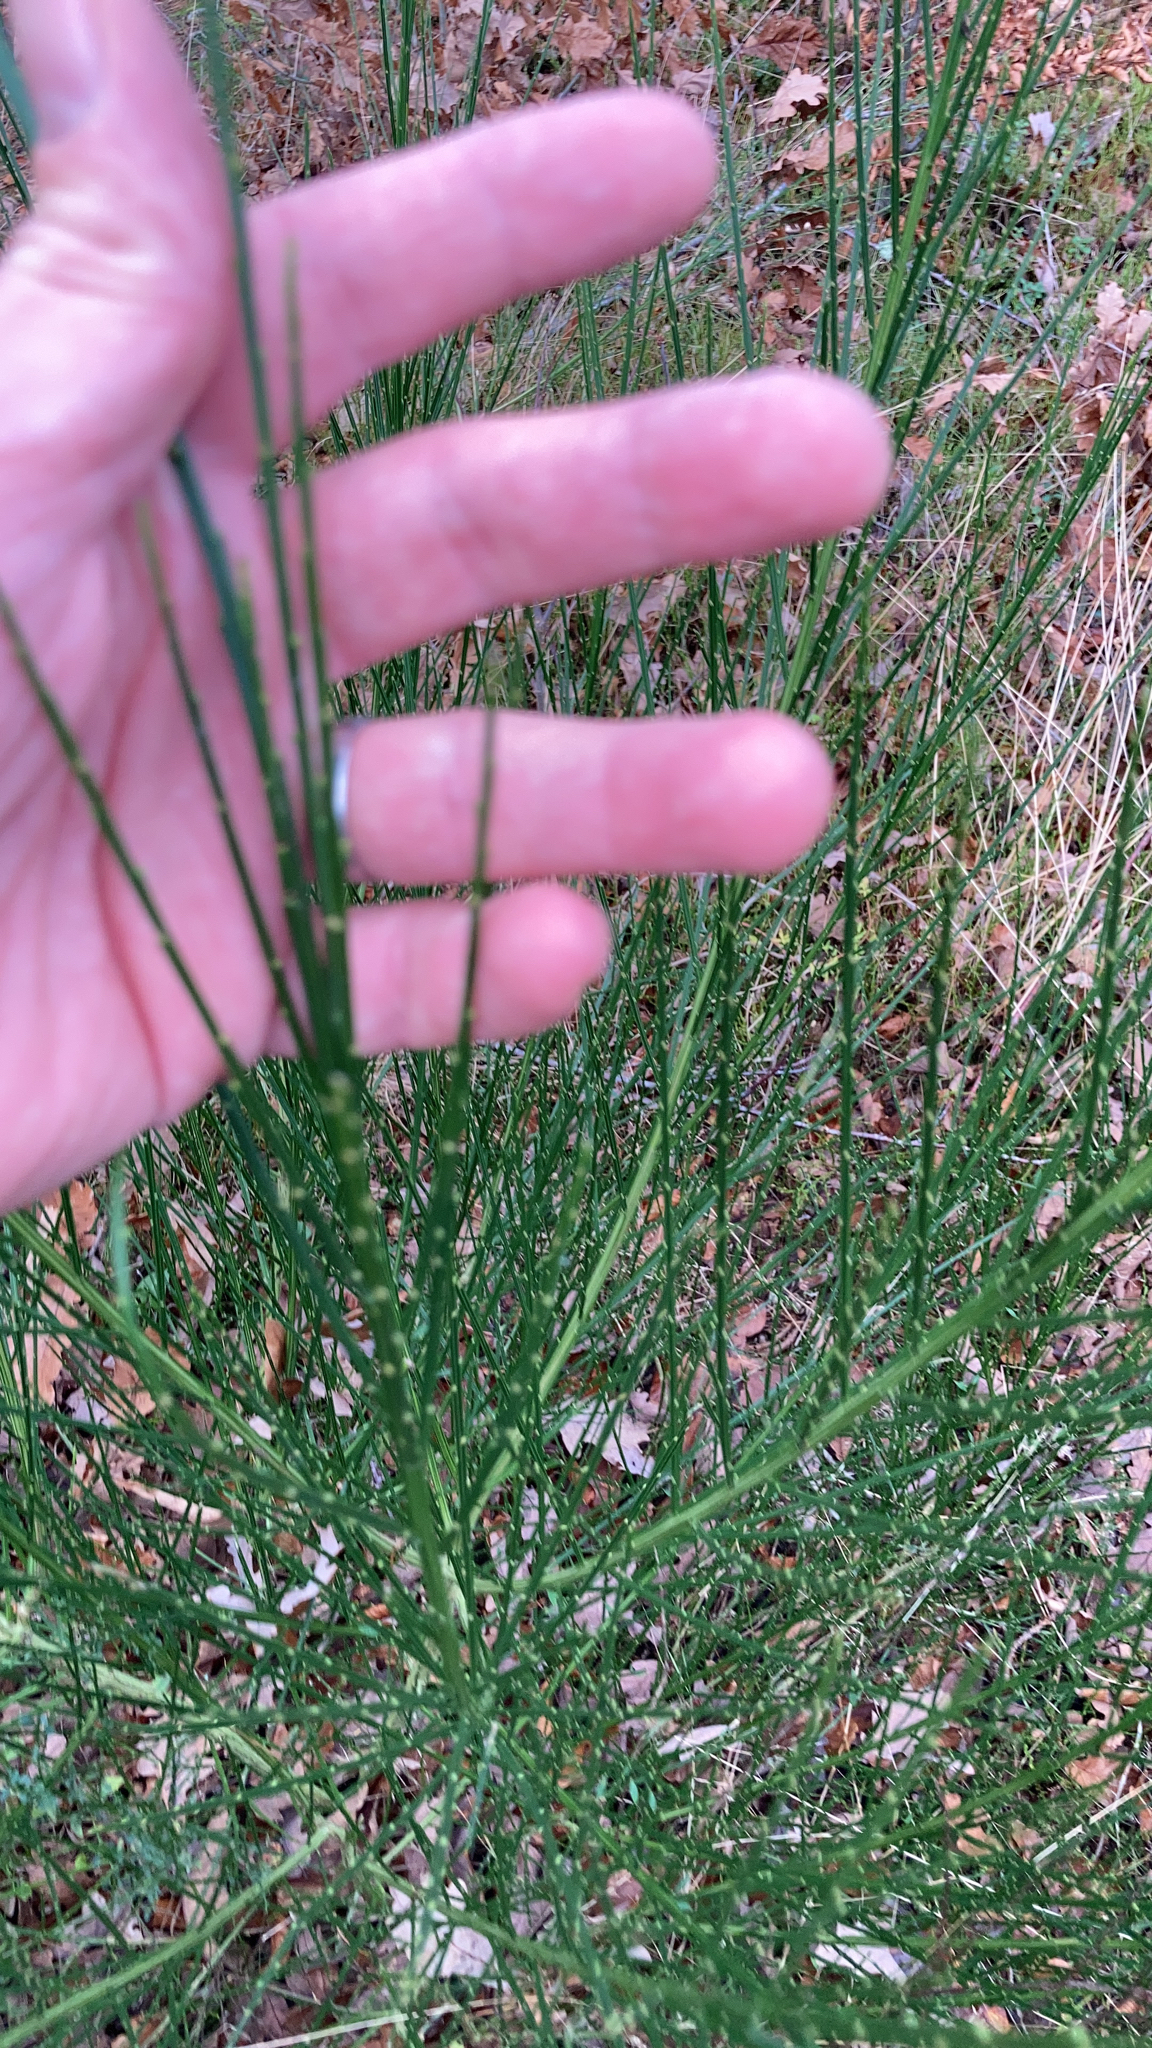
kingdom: Plantae
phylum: Tracheophyta
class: Magnoliopsida
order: Fabales
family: Fabaceae
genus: Cytisus
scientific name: Cytisus scoparius
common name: Scotch broom
